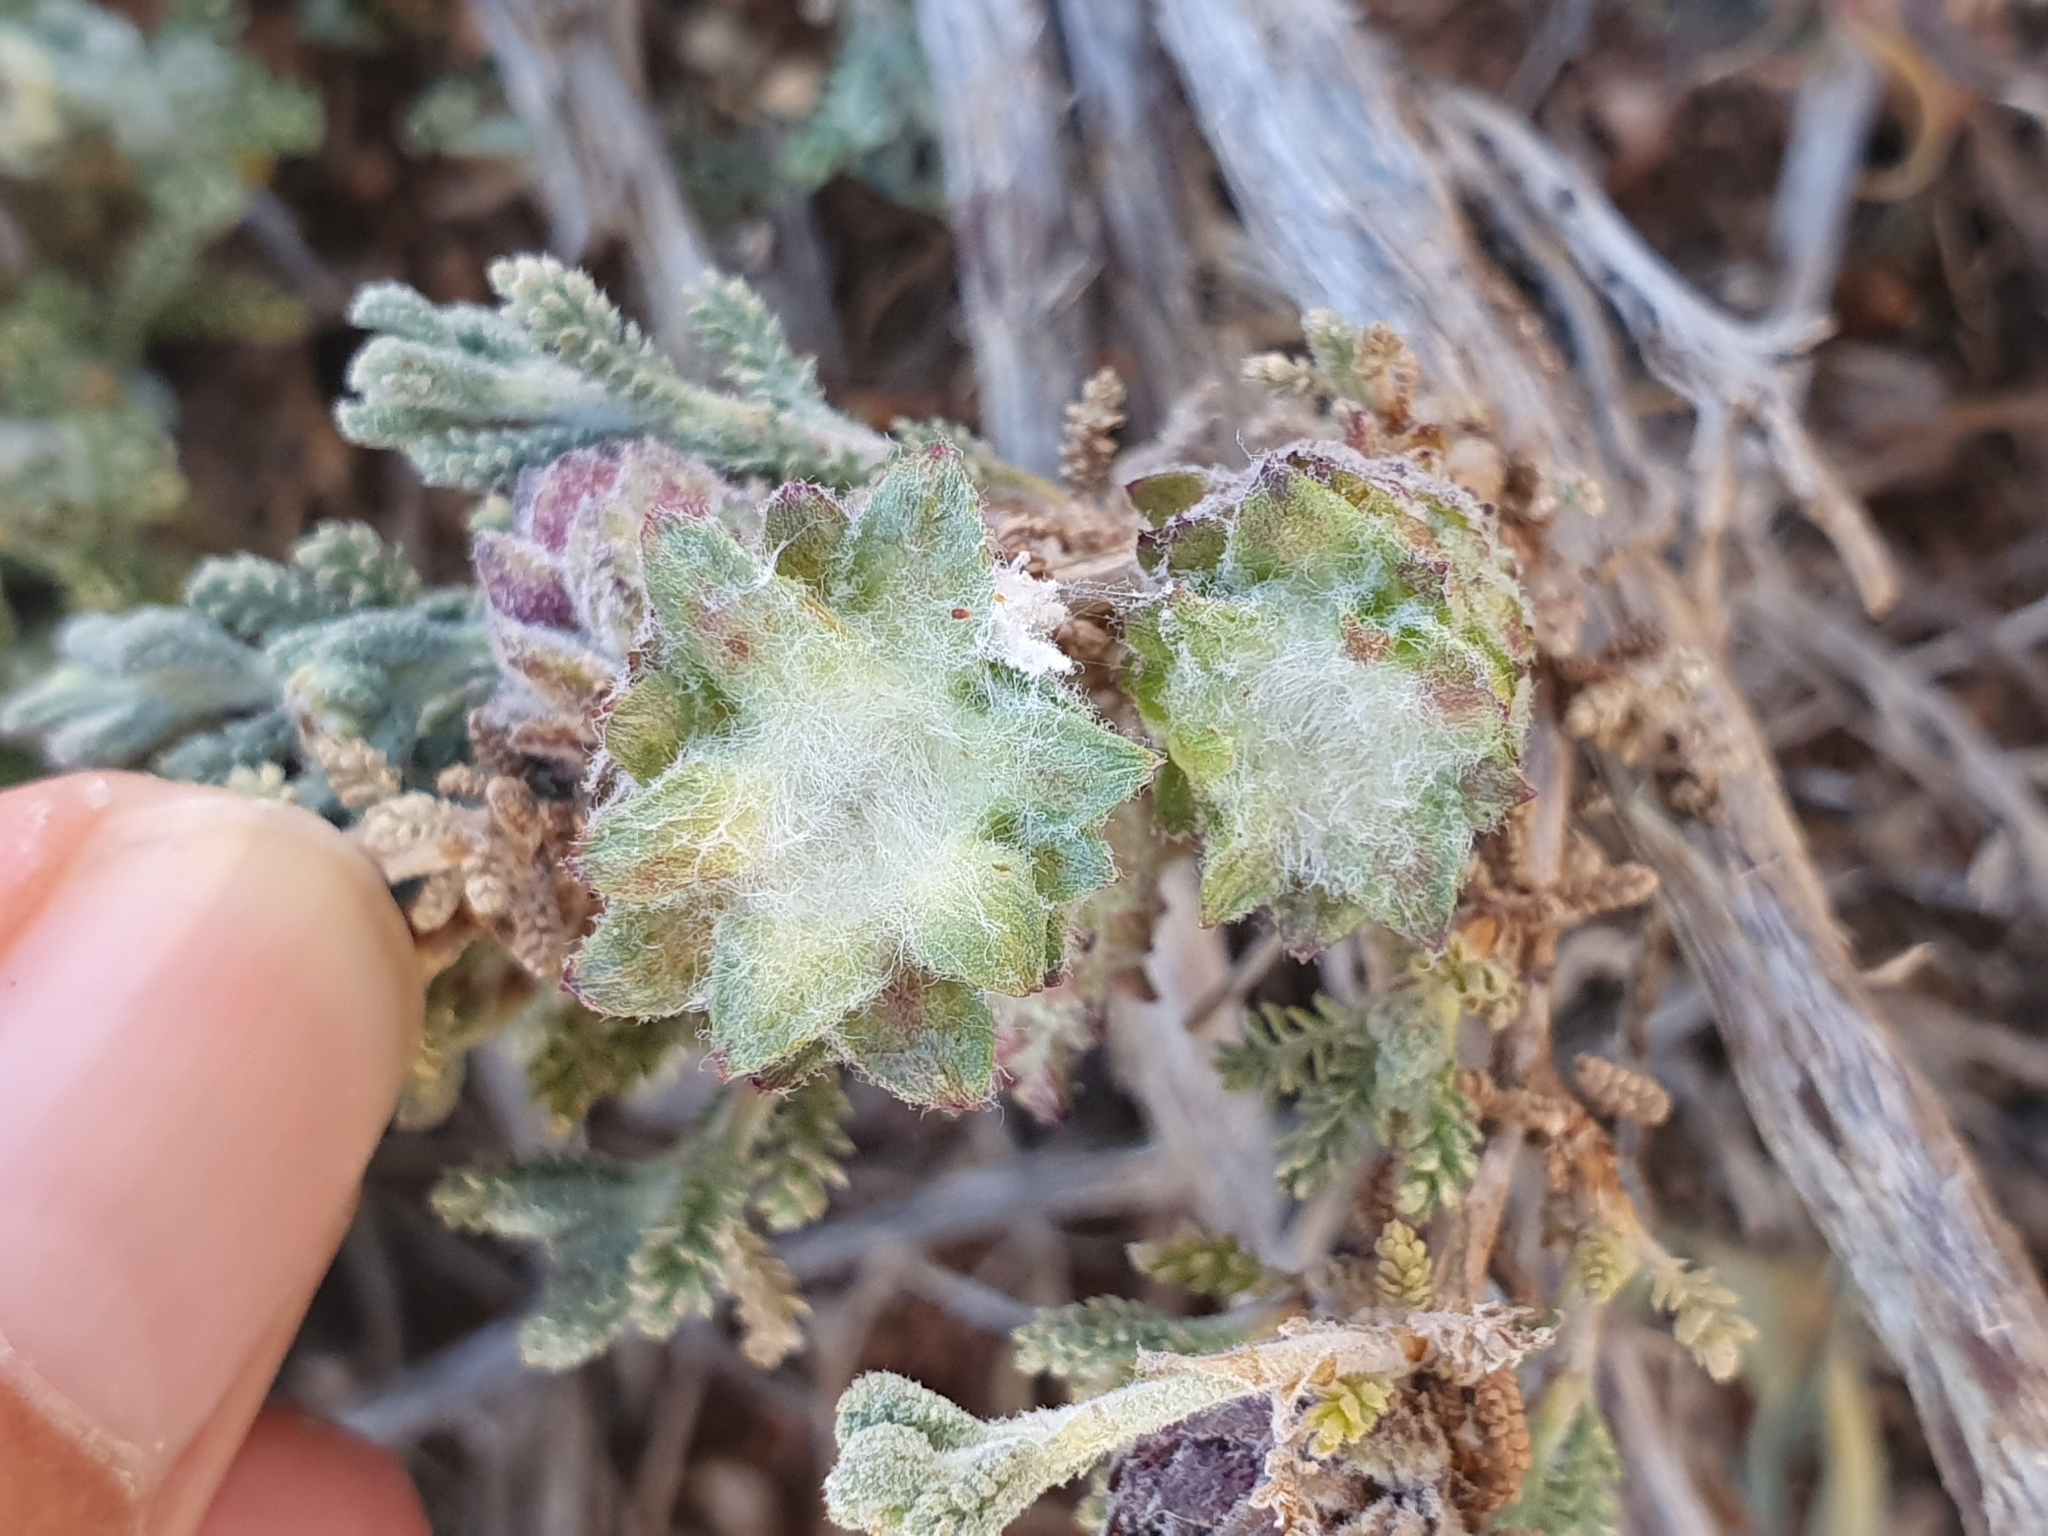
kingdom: Plantae
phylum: Tracheophyta
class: Magnoliopsida
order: Asterales
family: Asteraceae
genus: Santolina
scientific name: Santolina africana
